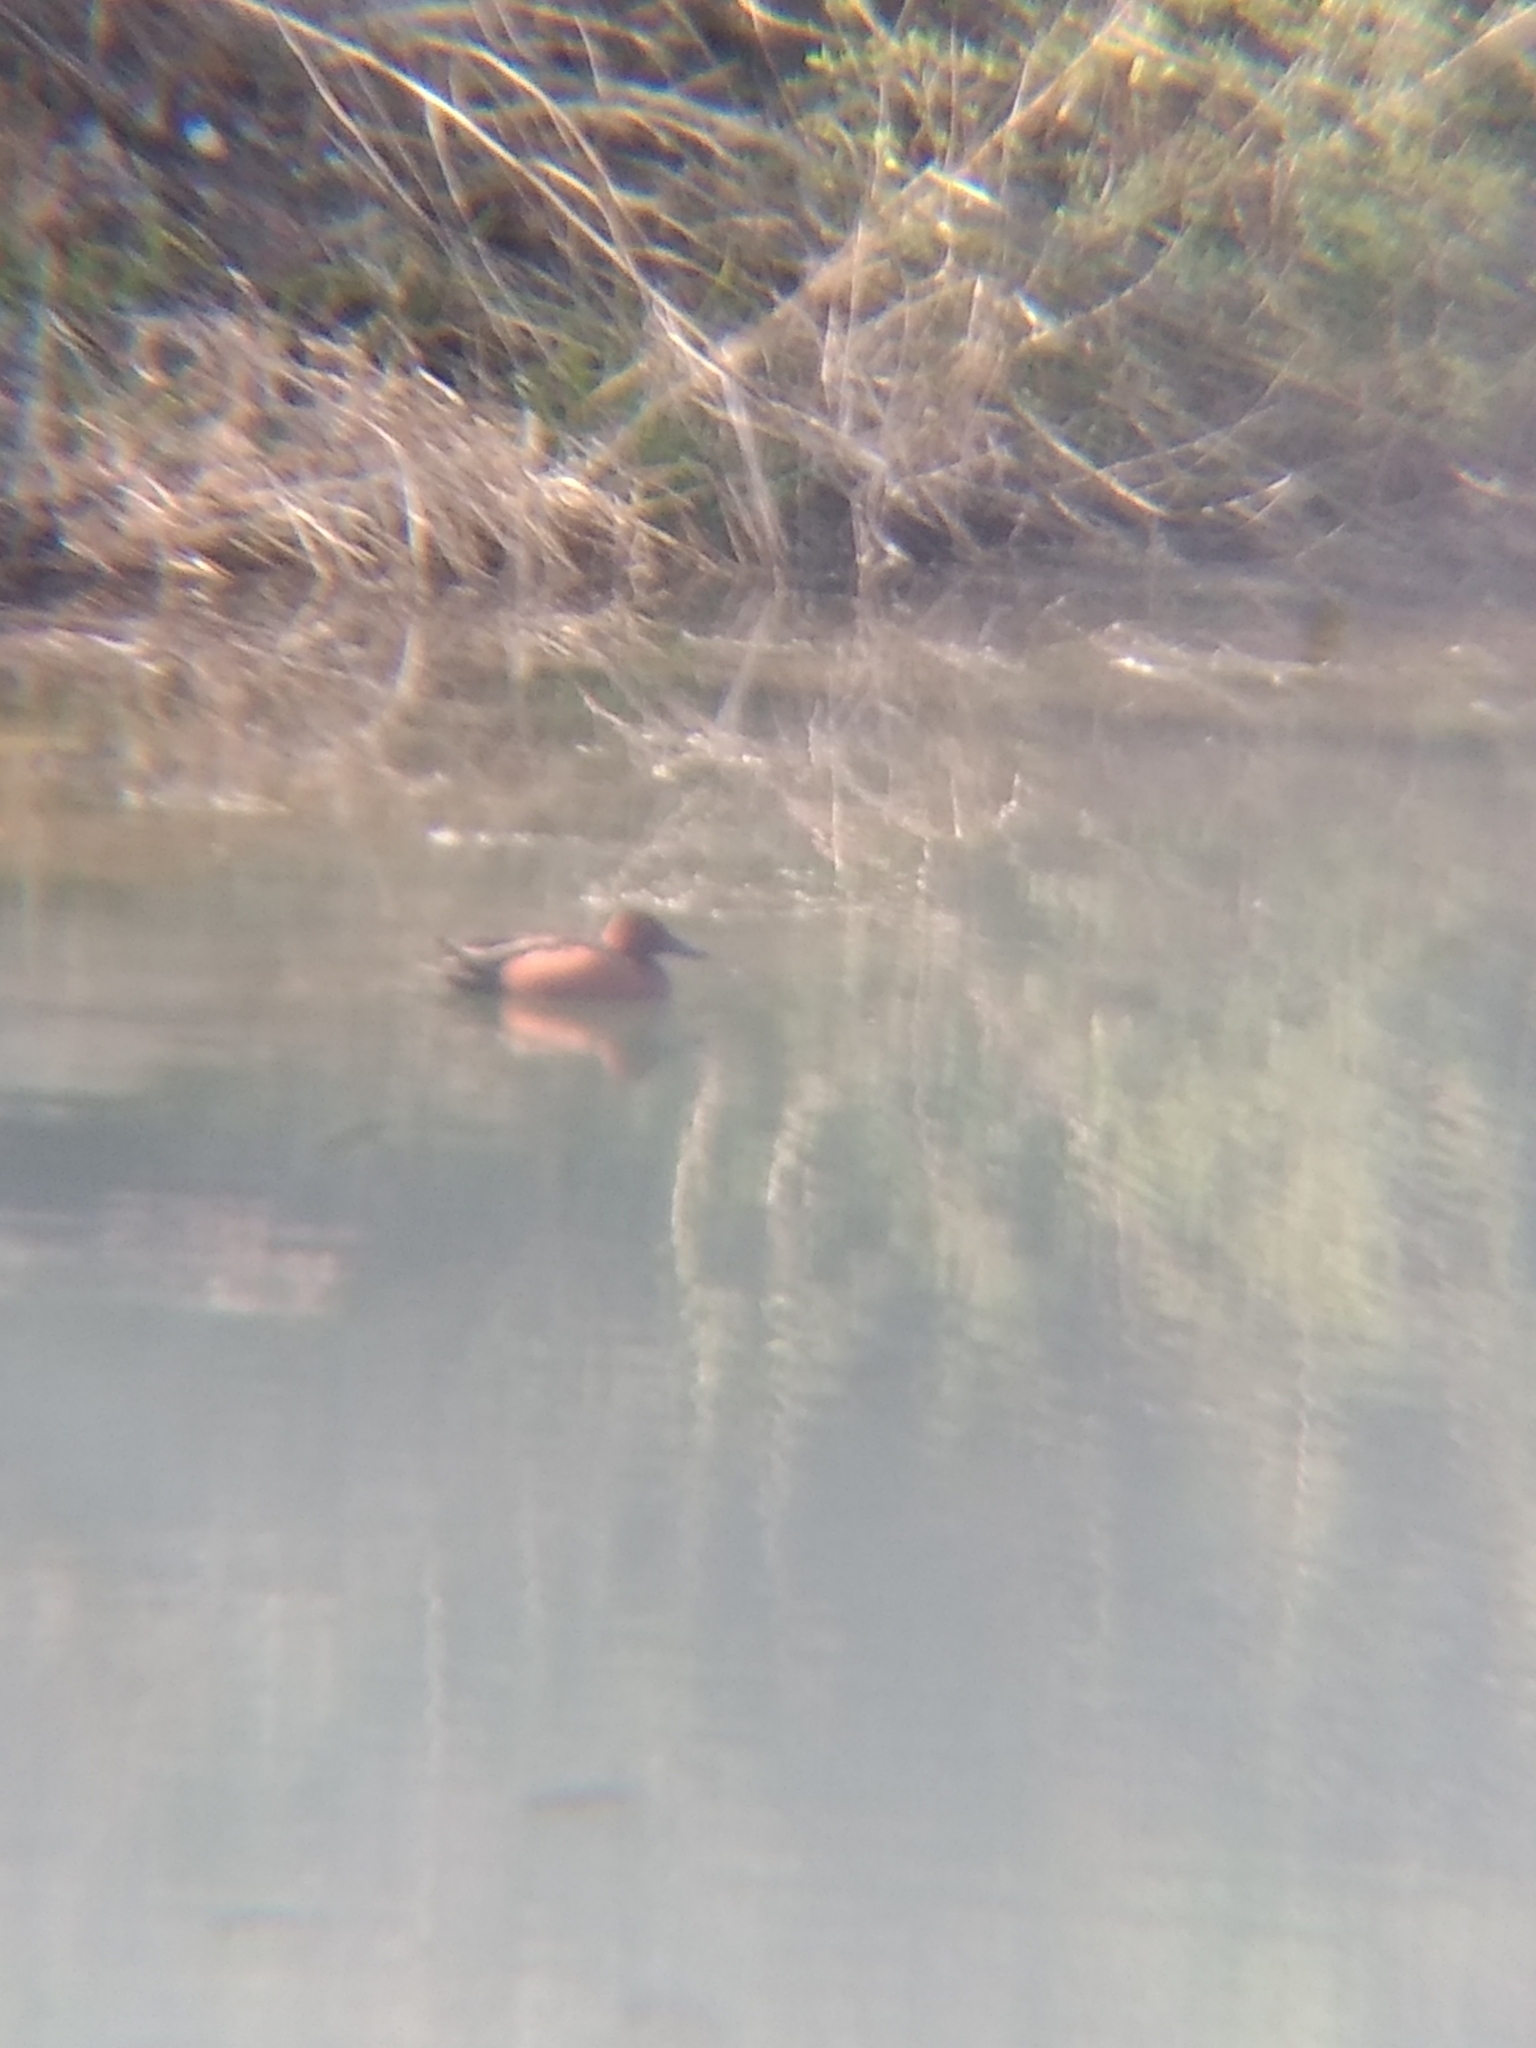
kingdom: Animalia
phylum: Chordata
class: Aves
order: Anseriformes
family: Anatidae
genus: Spatula
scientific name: Spatula cyanoptera
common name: Cinnamon teal
